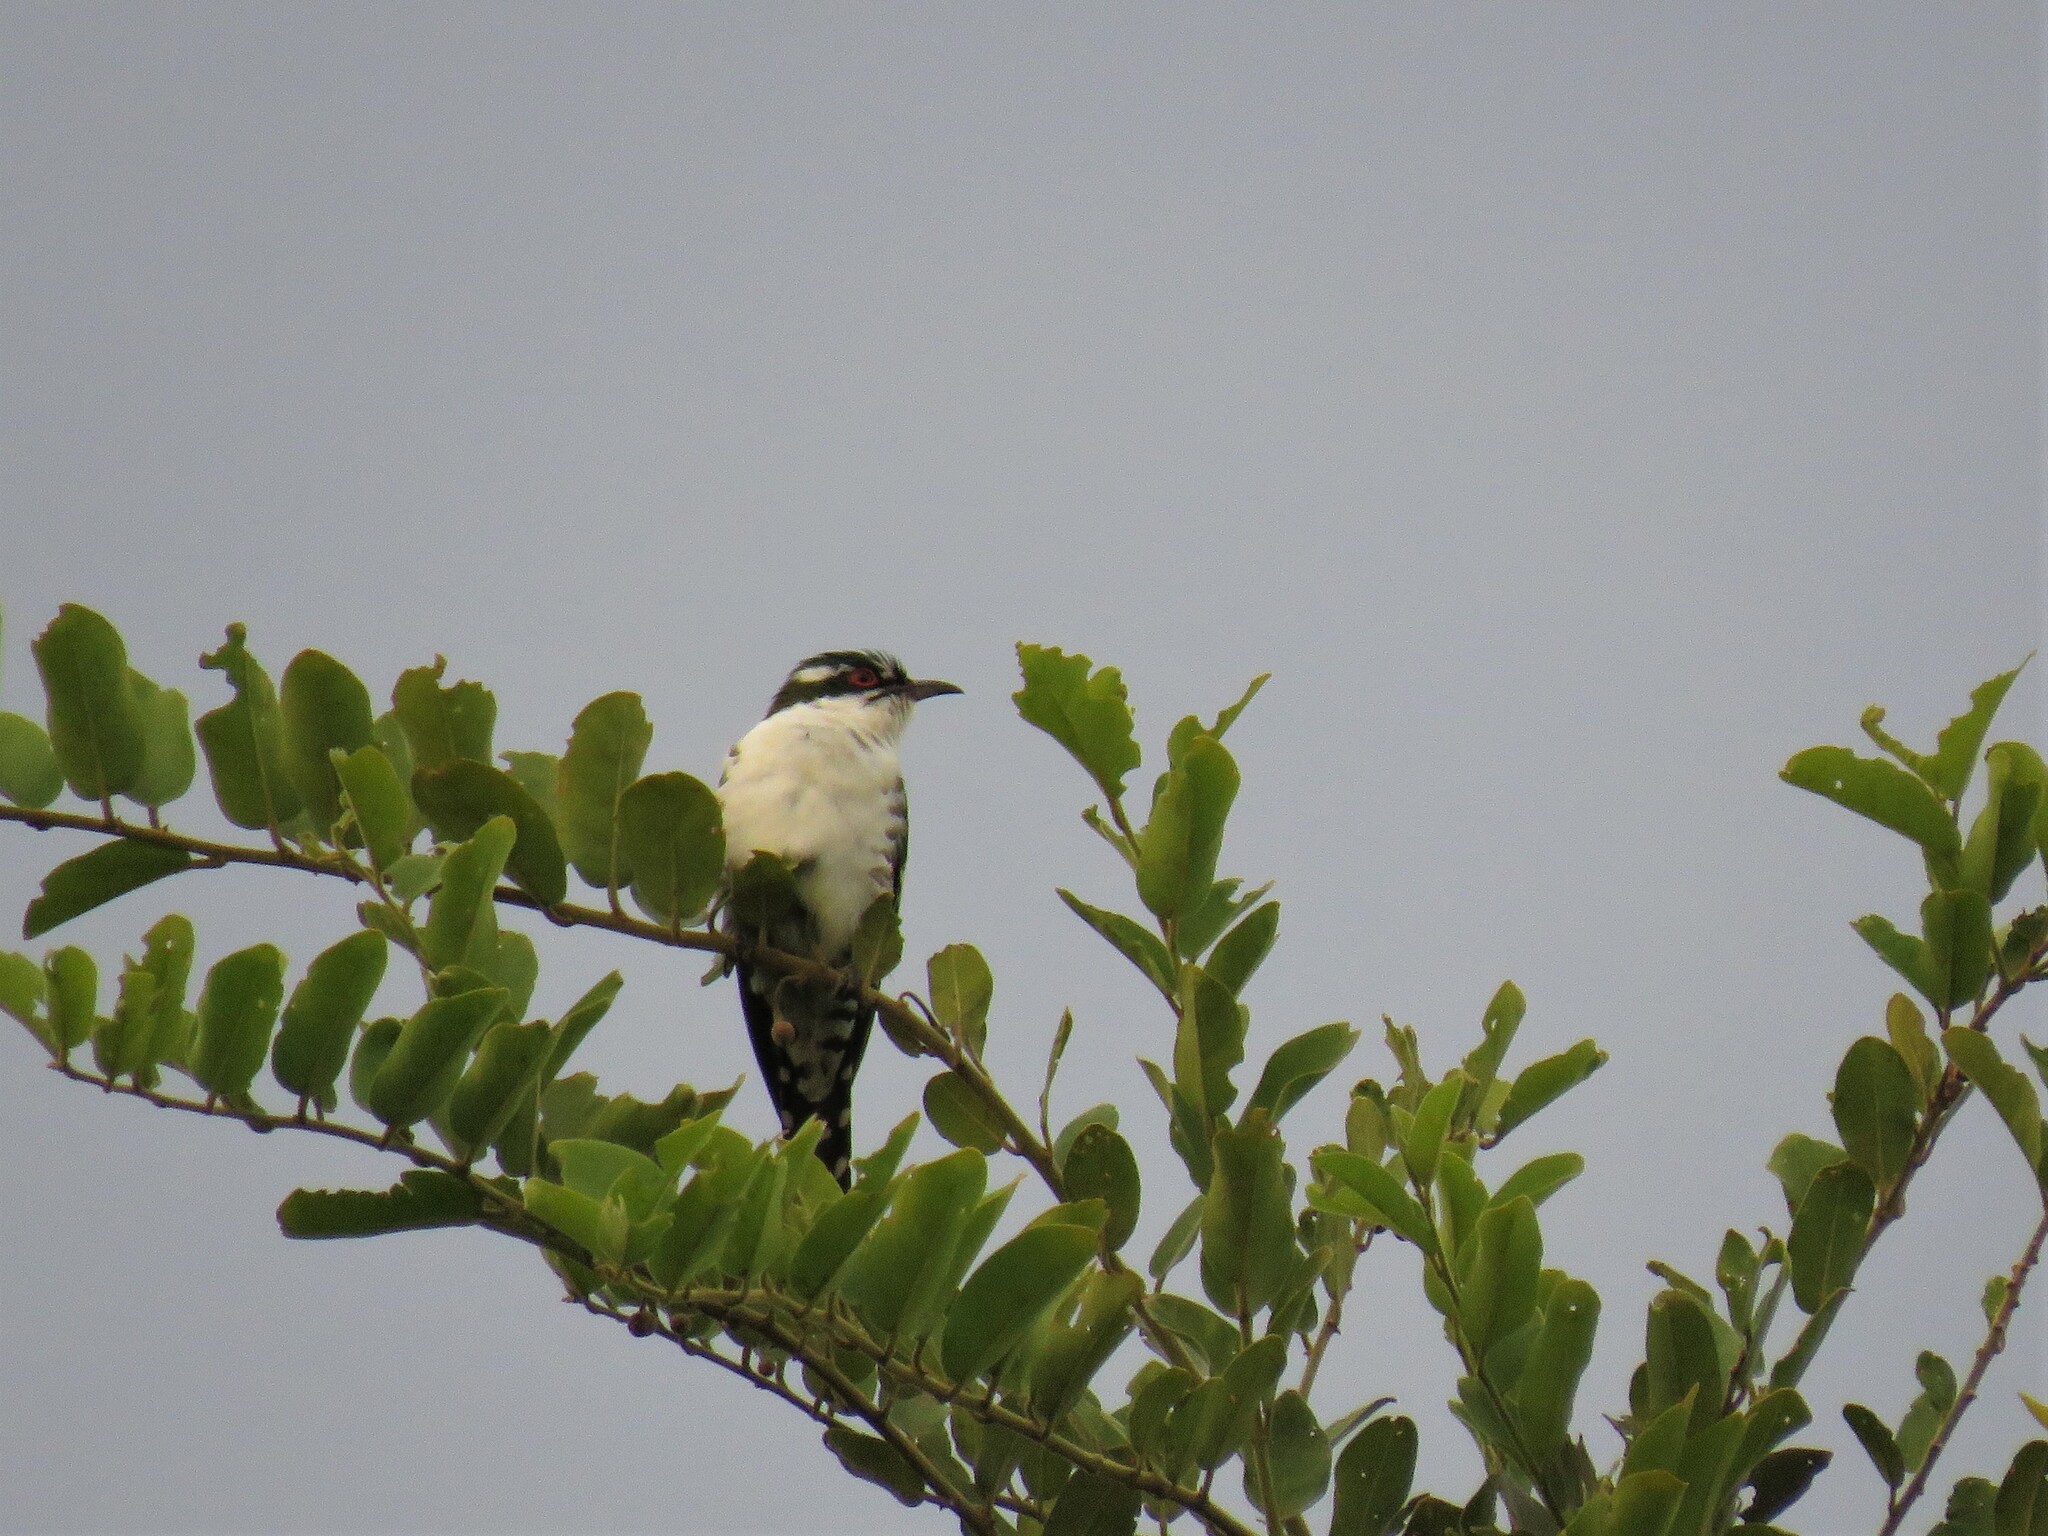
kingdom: Animalia
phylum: Chordata
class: Aves
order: Cuculiformes
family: Cuculidae
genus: Chrysococcyx
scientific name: Chrysococcyx caprius
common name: Diederik cuckoo
